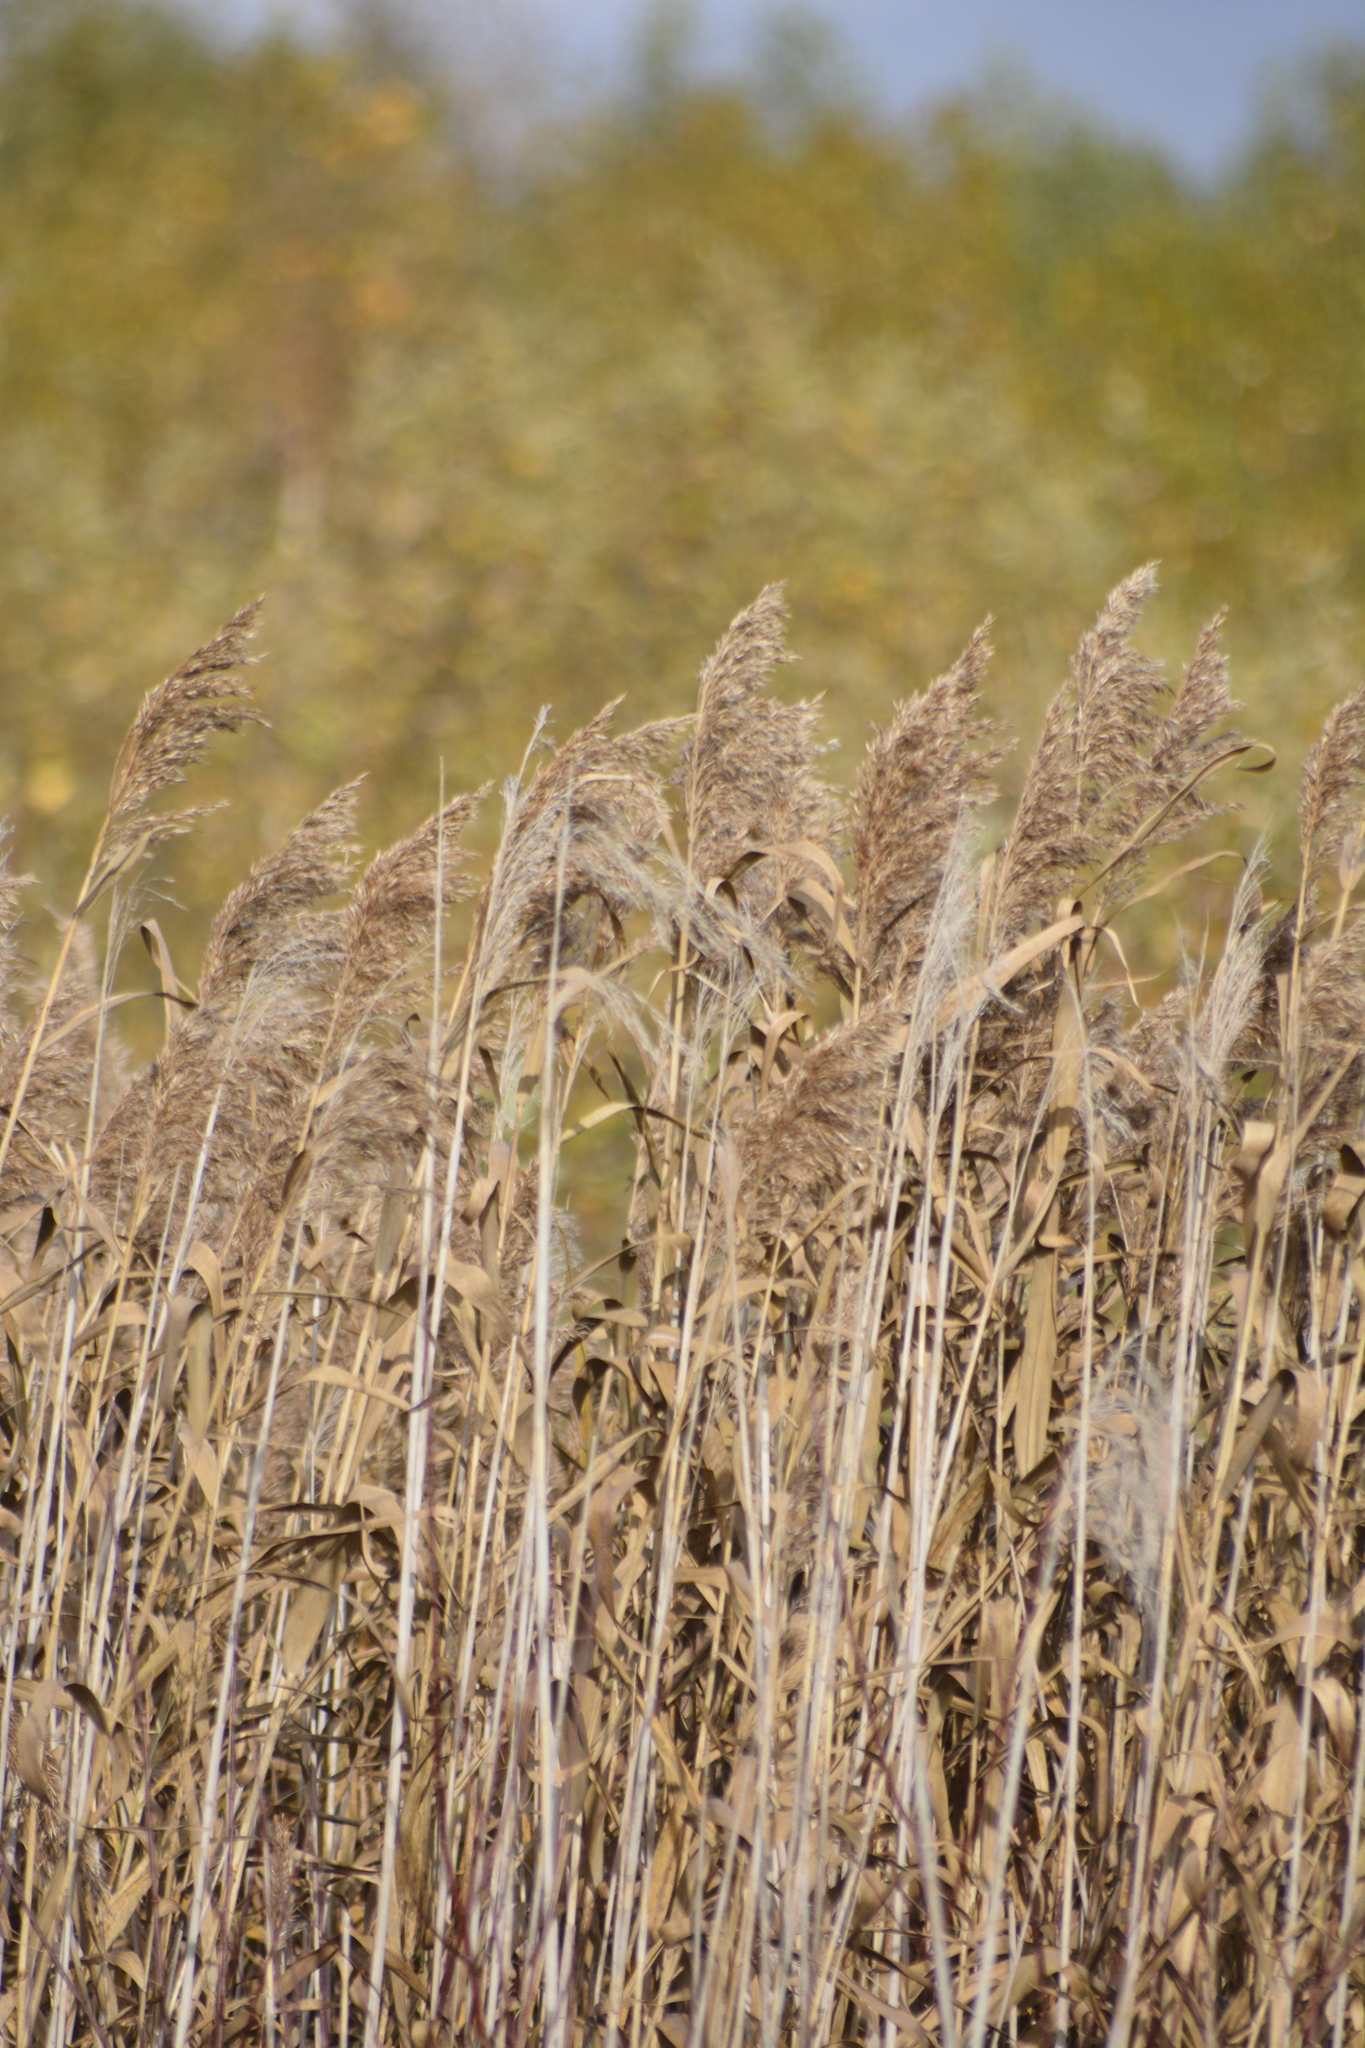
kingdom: Plantae
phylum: Tracheophyta
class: Liliopsida
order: Poales
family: Poaceae
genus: Phragmites
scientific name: Phragmites australis
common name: Common reed
